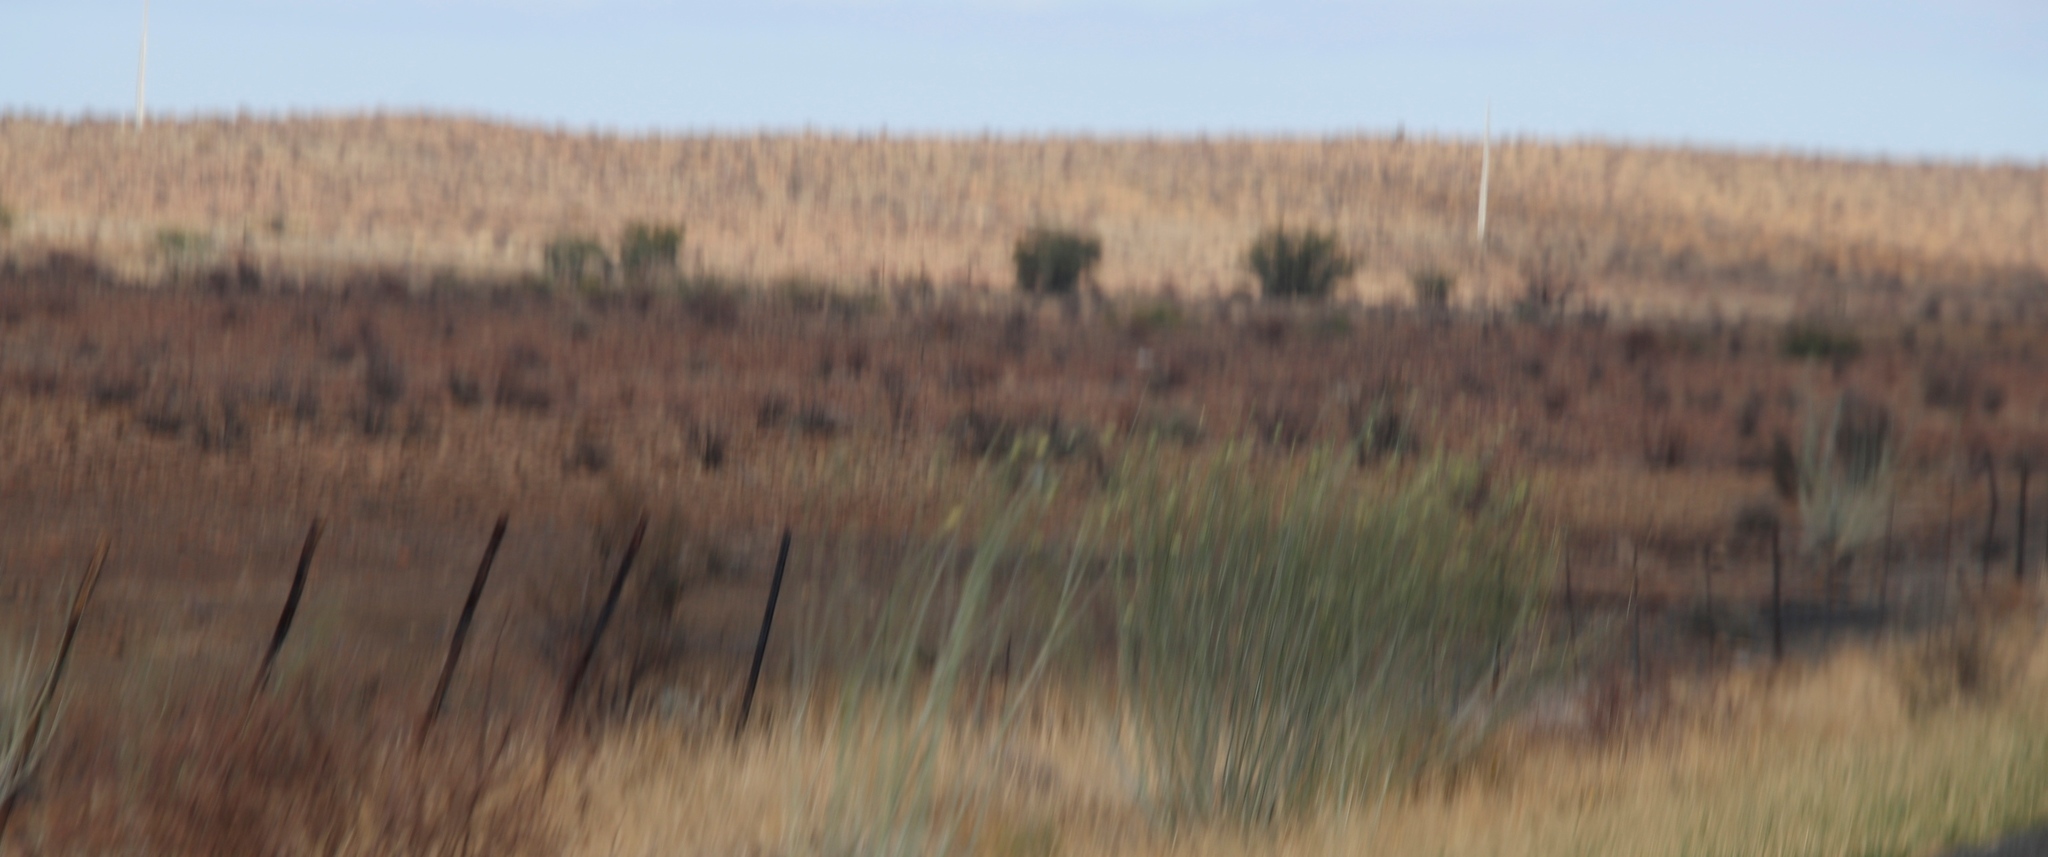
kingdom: Plantae
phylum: Tracheophyta
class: Magnoliopsida
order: Gentianales
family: Apocynaceae
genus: Gomphocarpus
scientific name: Gomphocarpus filiformis
